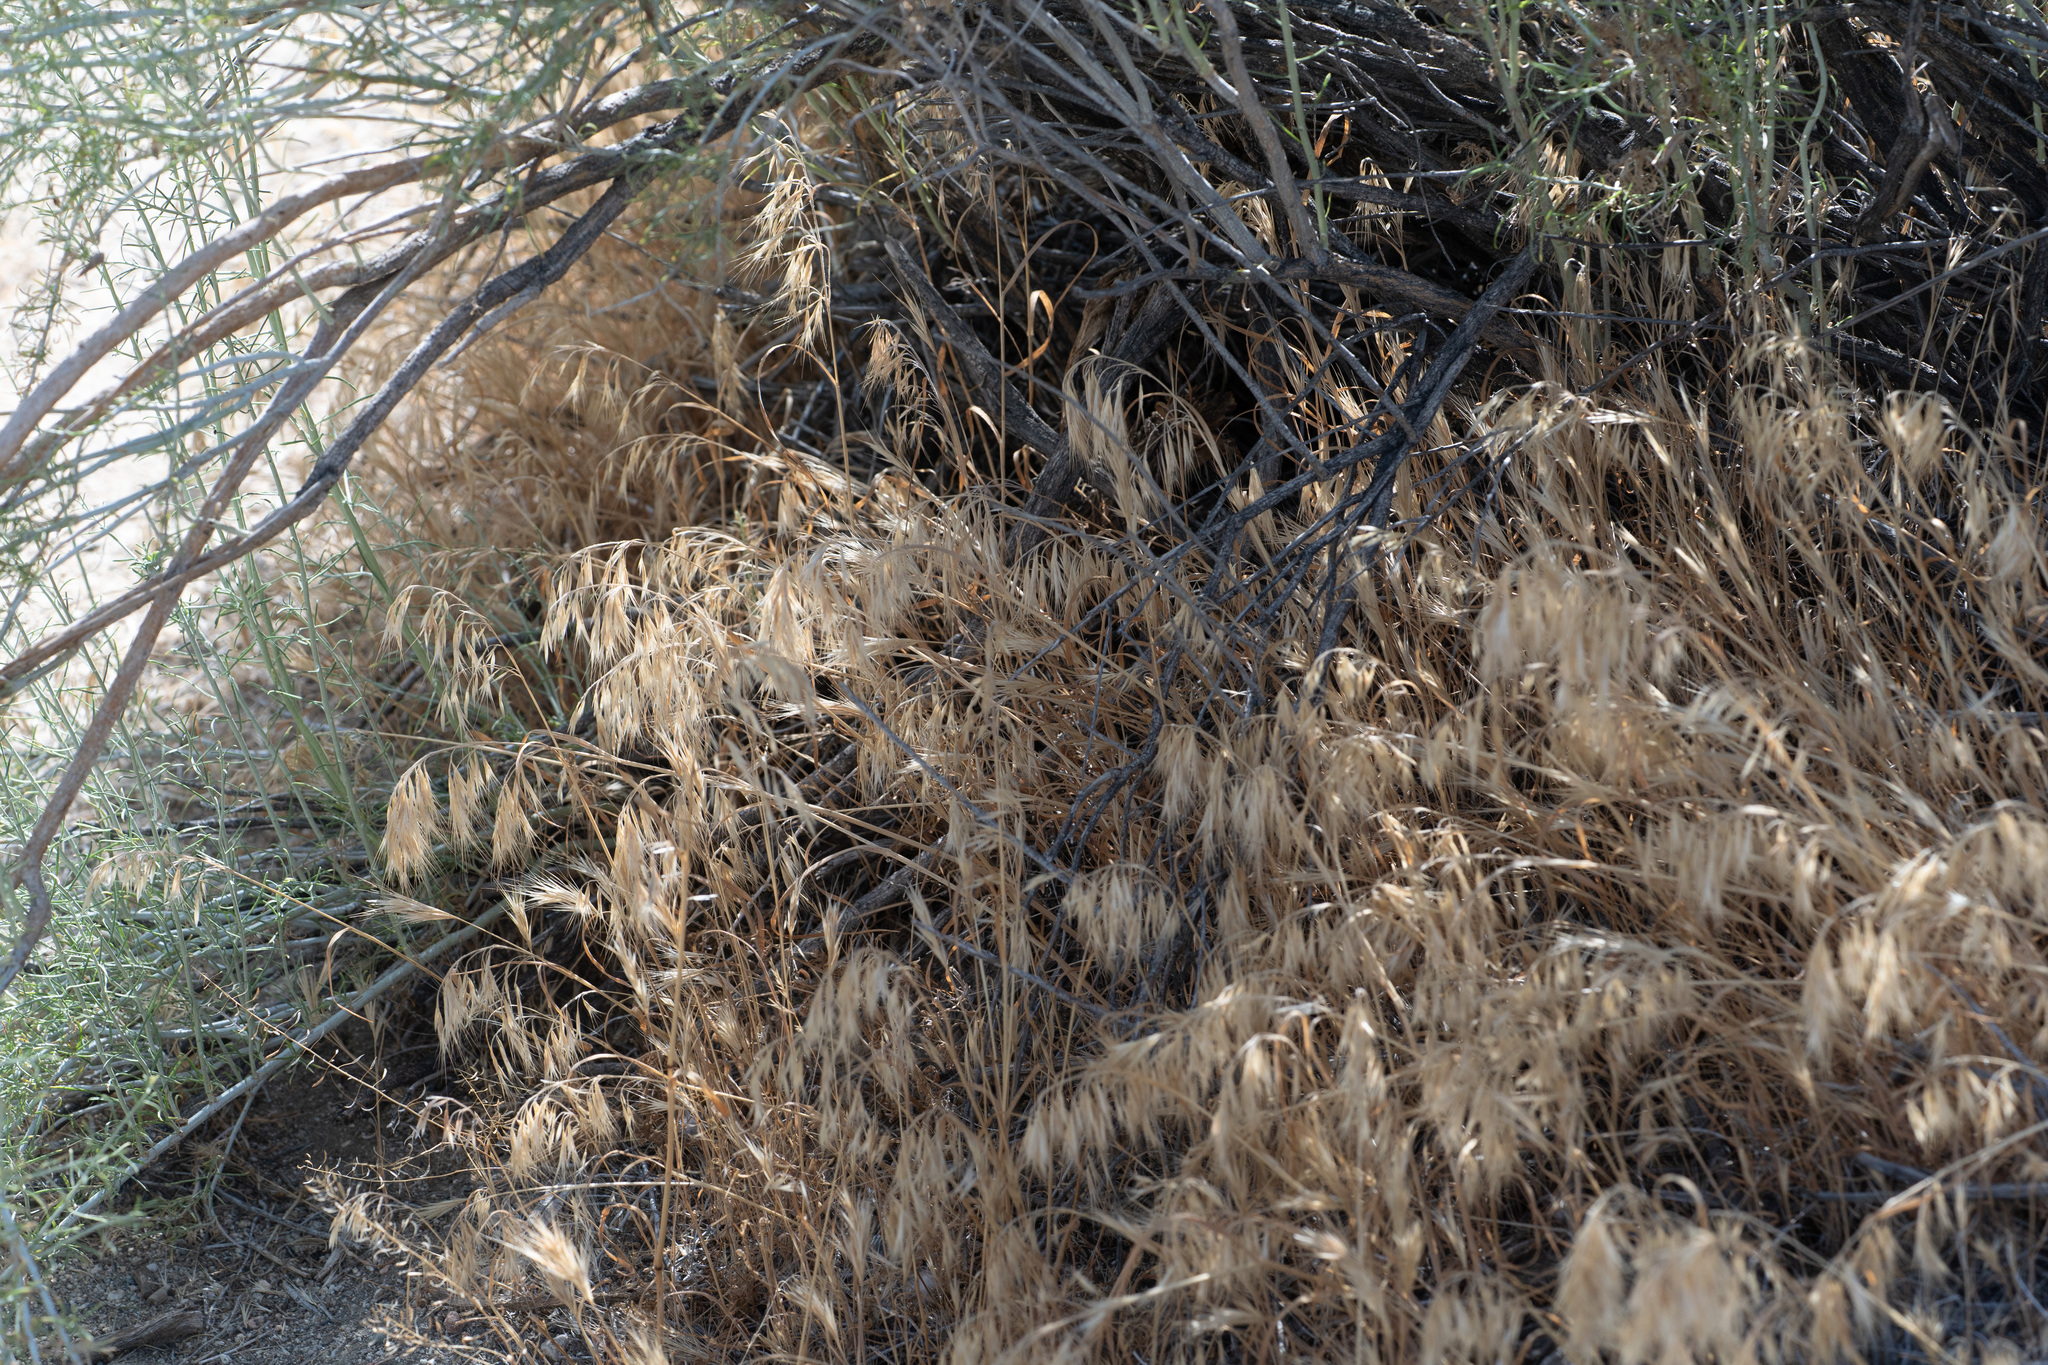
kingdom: Plantae
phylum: Tracheophyta
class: Liliopsida
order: Poales
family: Poaceae
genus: Bromus
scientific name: Bromus tectorum
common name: Cheatgrass
